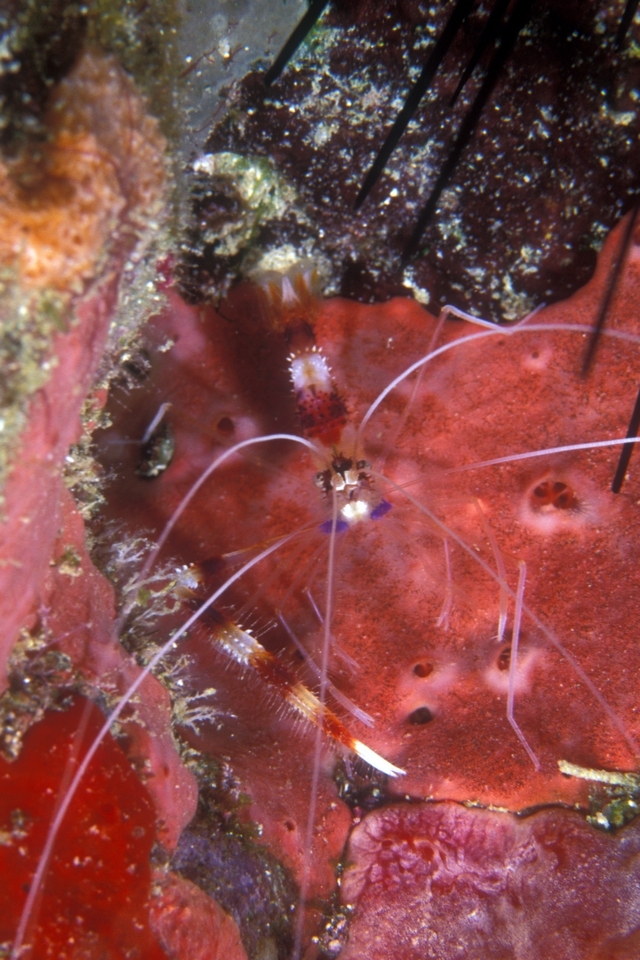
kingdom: Animalia
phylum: Arthropoda
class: Malacostraca
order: Decapoda
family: Stenopodidae
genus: Stenopus
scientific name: Stenopus hispidus
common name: Banded coral shrimp
